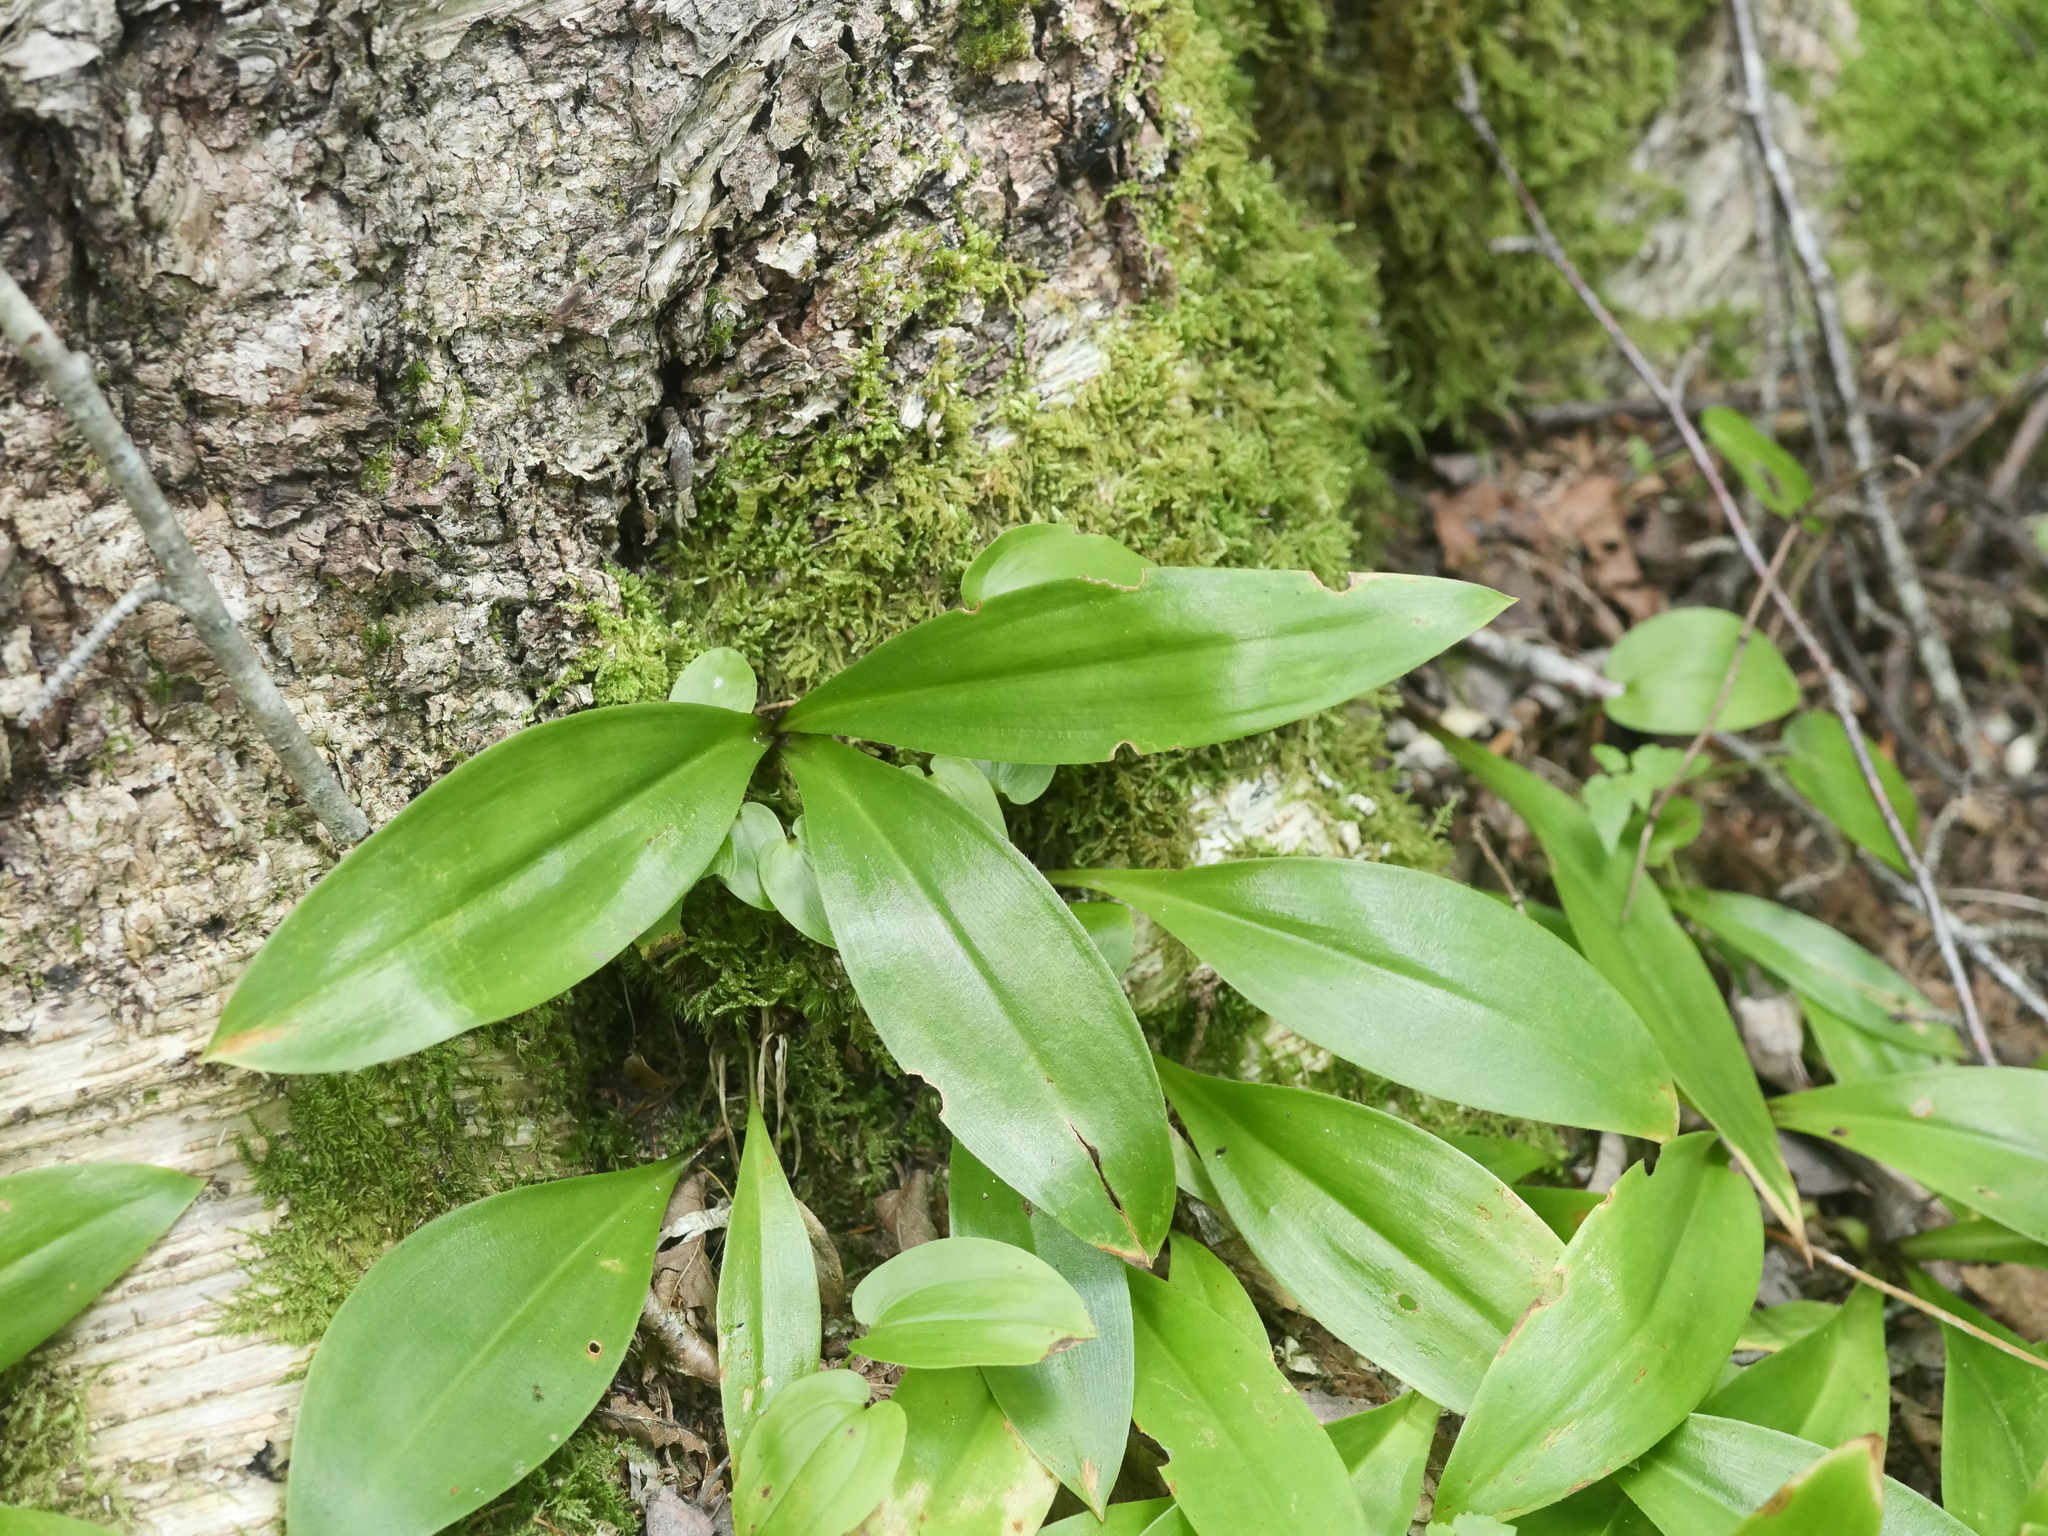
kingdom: Plantae
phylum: Tracheophyta
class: Liliopsida
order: Liliales
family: Liliaceae
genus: Clintonia
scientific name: Clintonia borealis
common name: Yellow clintonia
